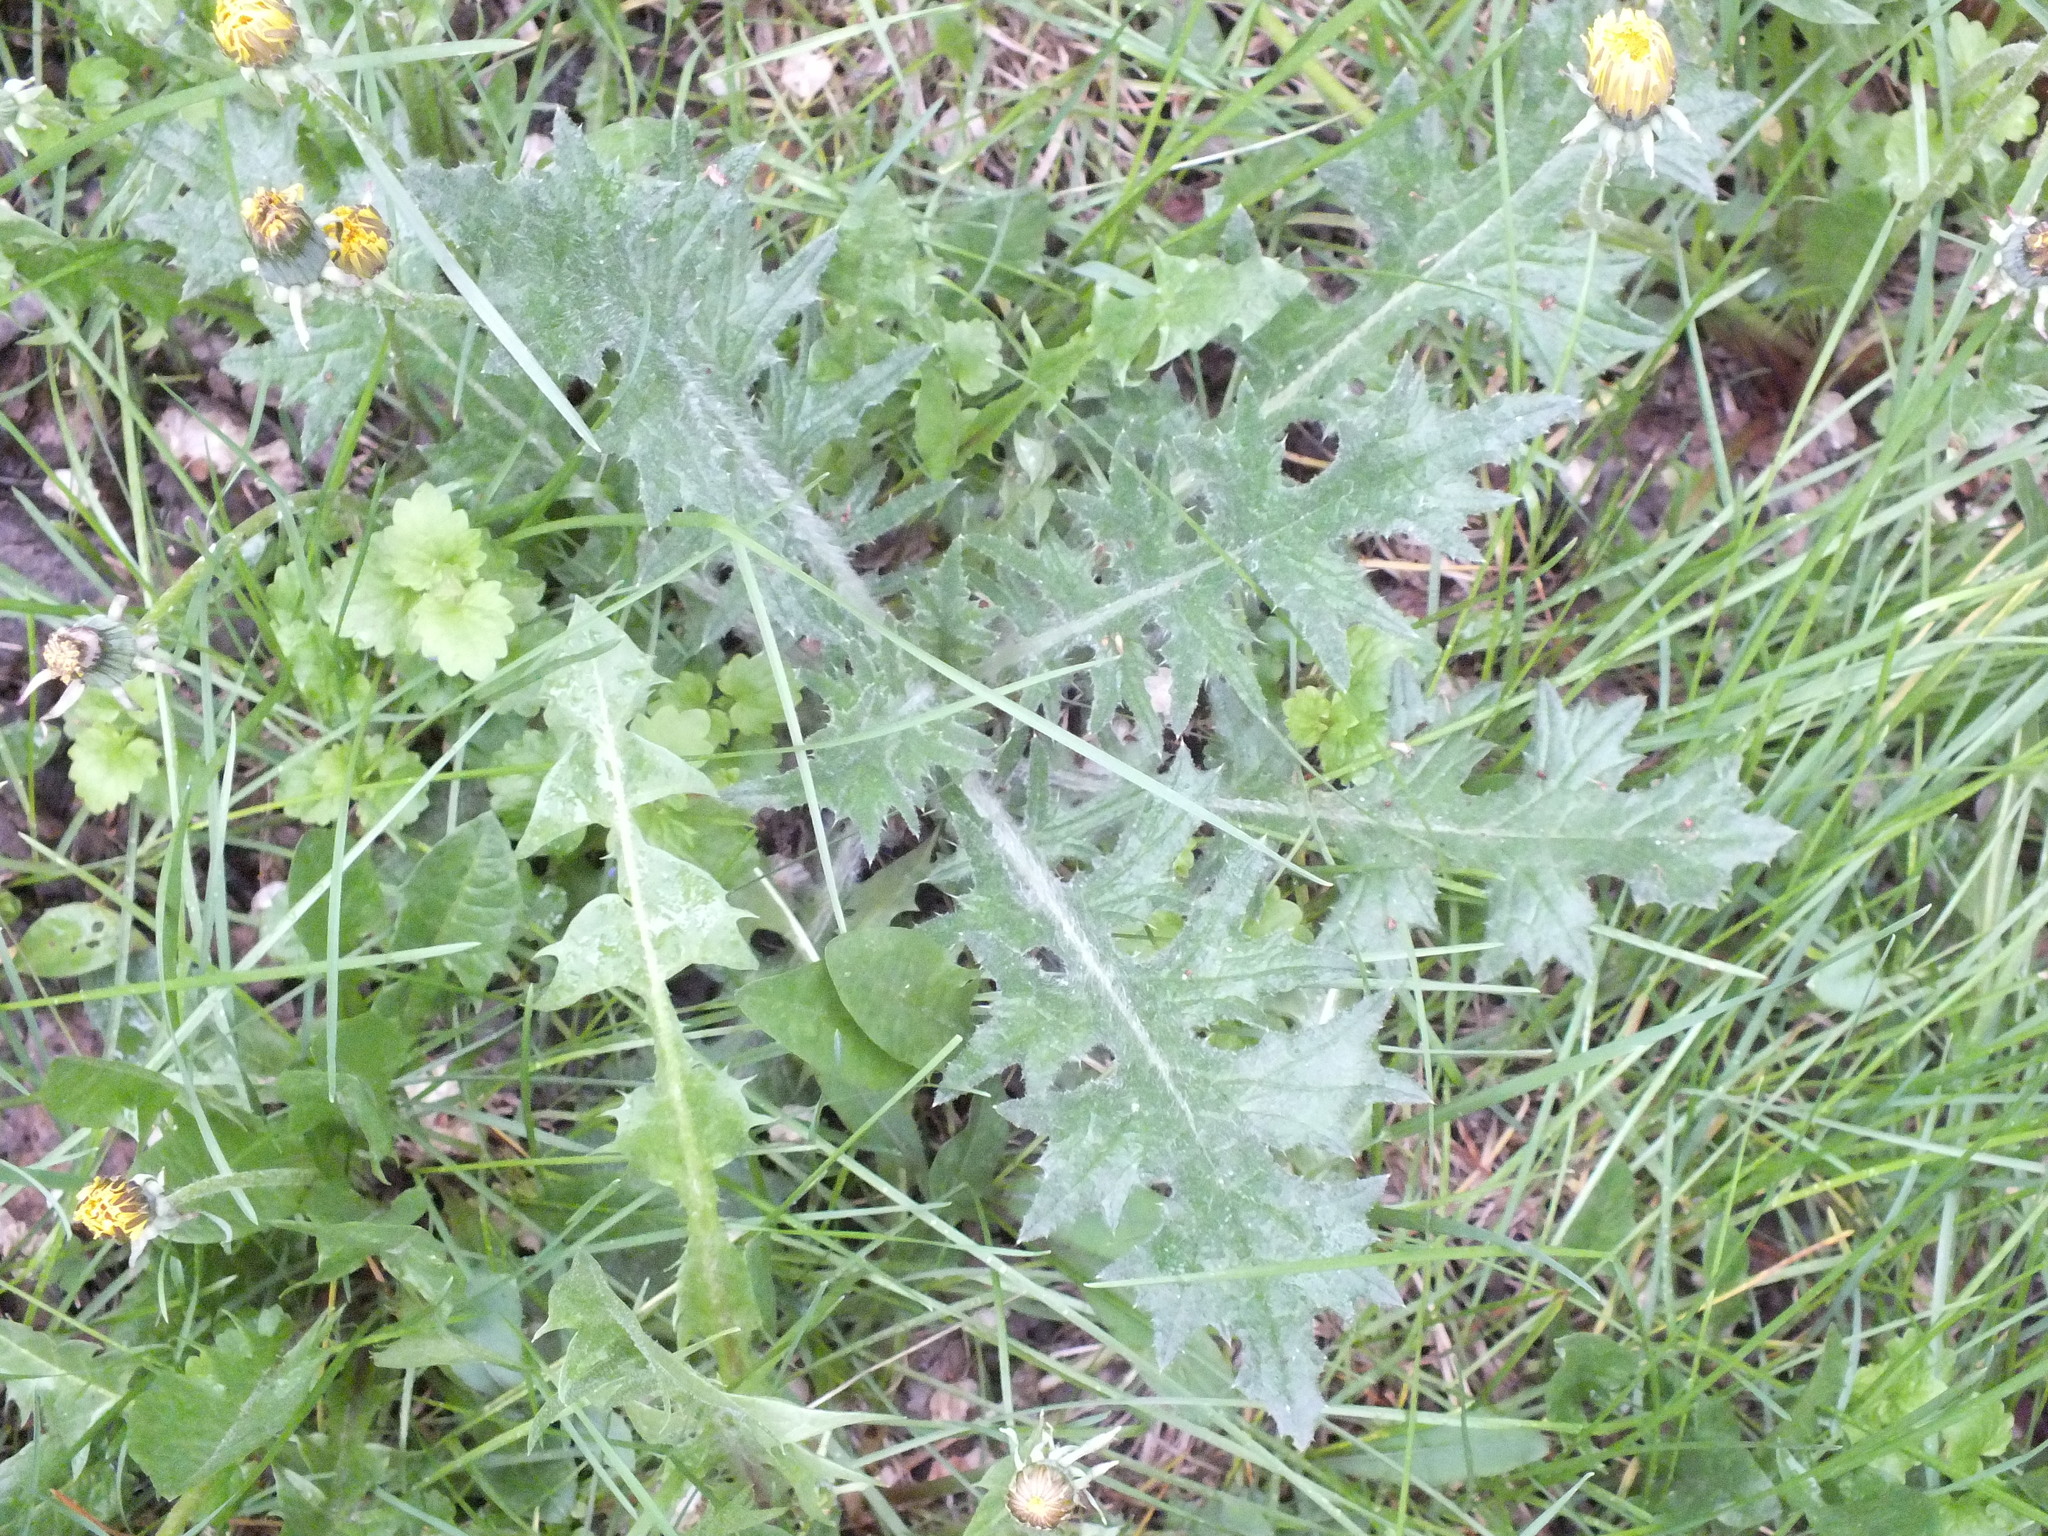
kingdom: Plantae
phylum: Tracheophyta
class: Magnoliopsida
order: Asterales
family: Asteraceae
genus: Cirsium
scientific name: Cirsium vulgare
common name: Bull thistle
